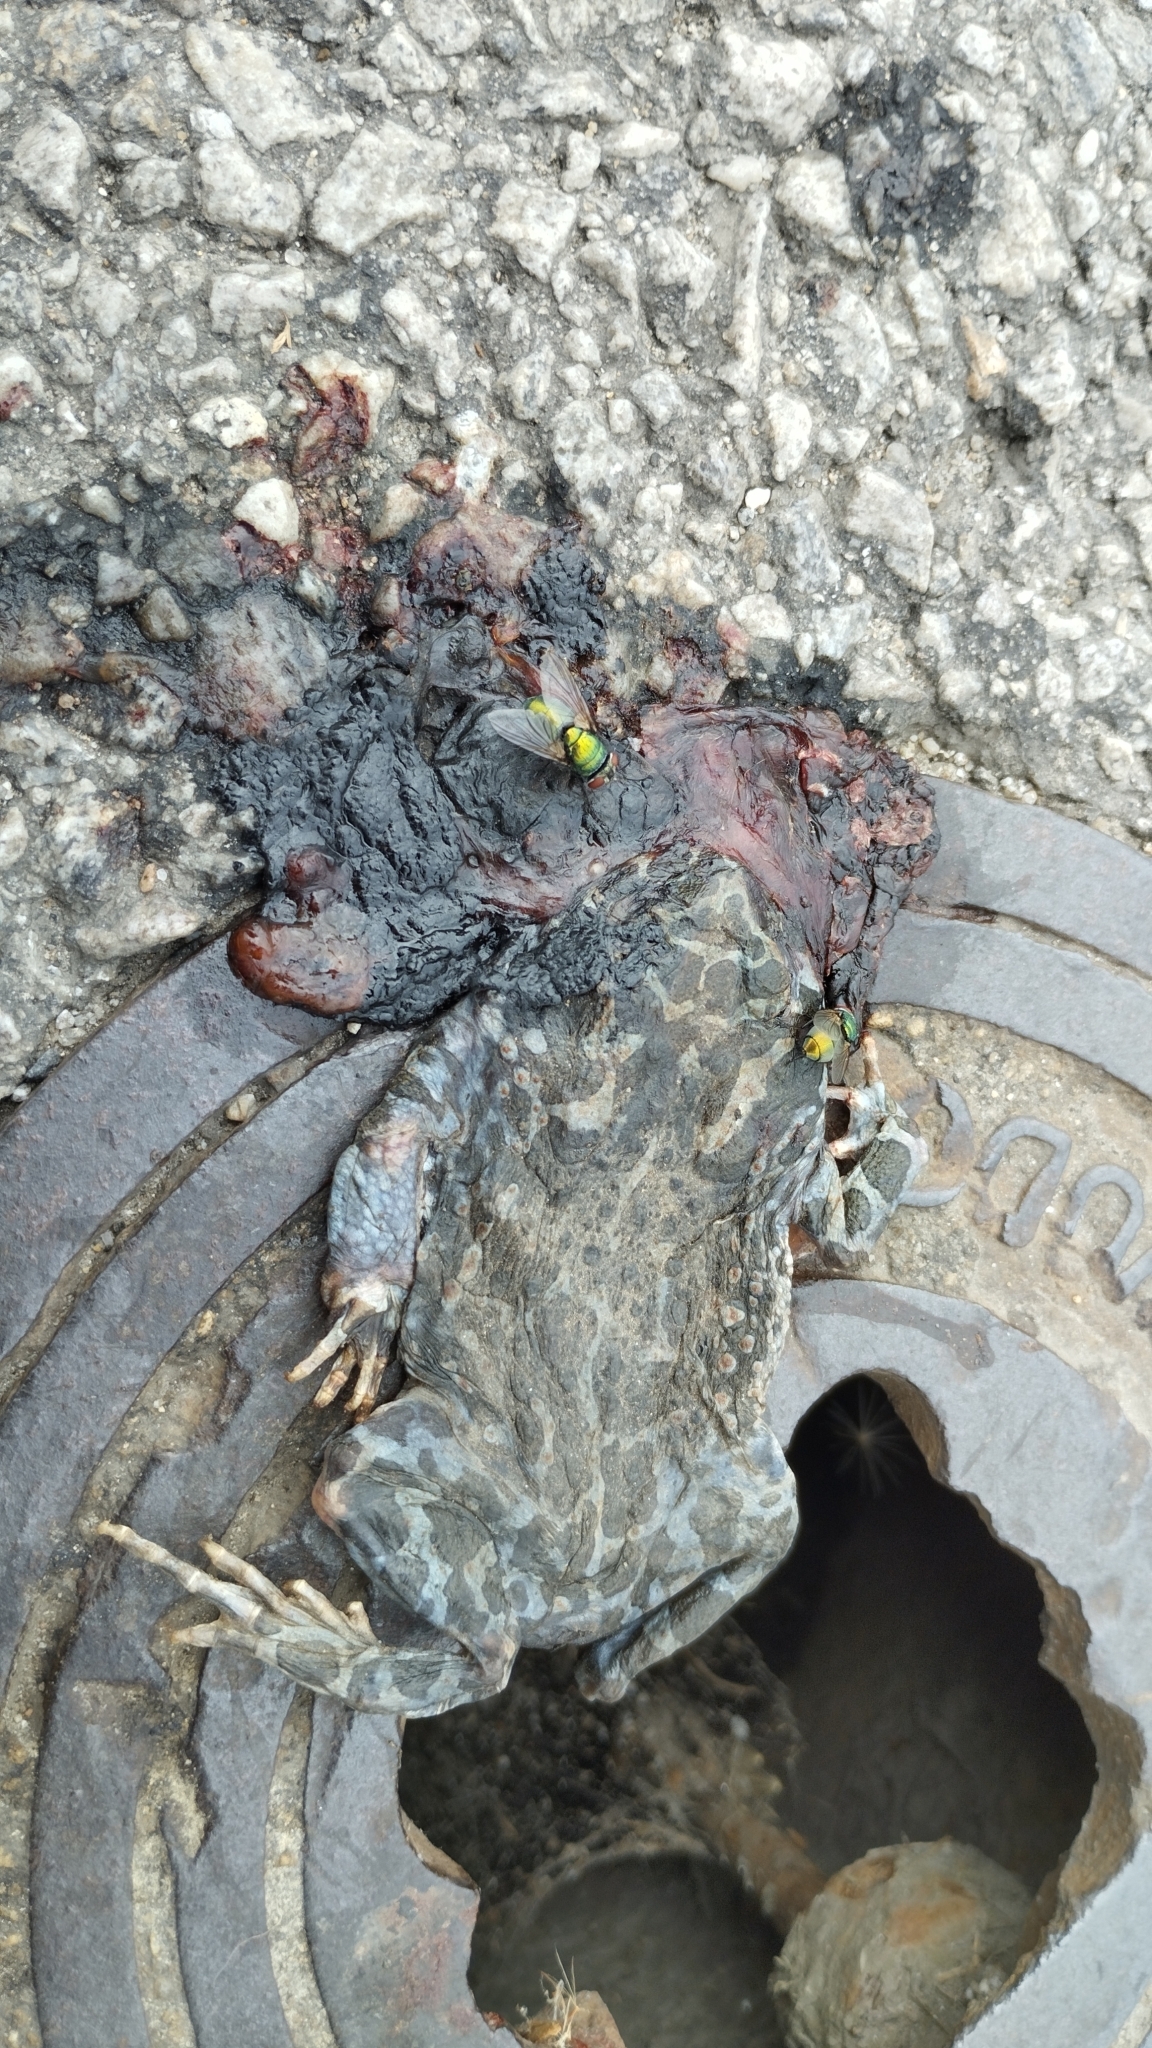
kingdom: Animalia
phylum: Chordata
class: Amphibia
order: Anura
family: Bufonidae
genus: Bufotes
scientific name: Bufotes viridis
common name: European green toad
